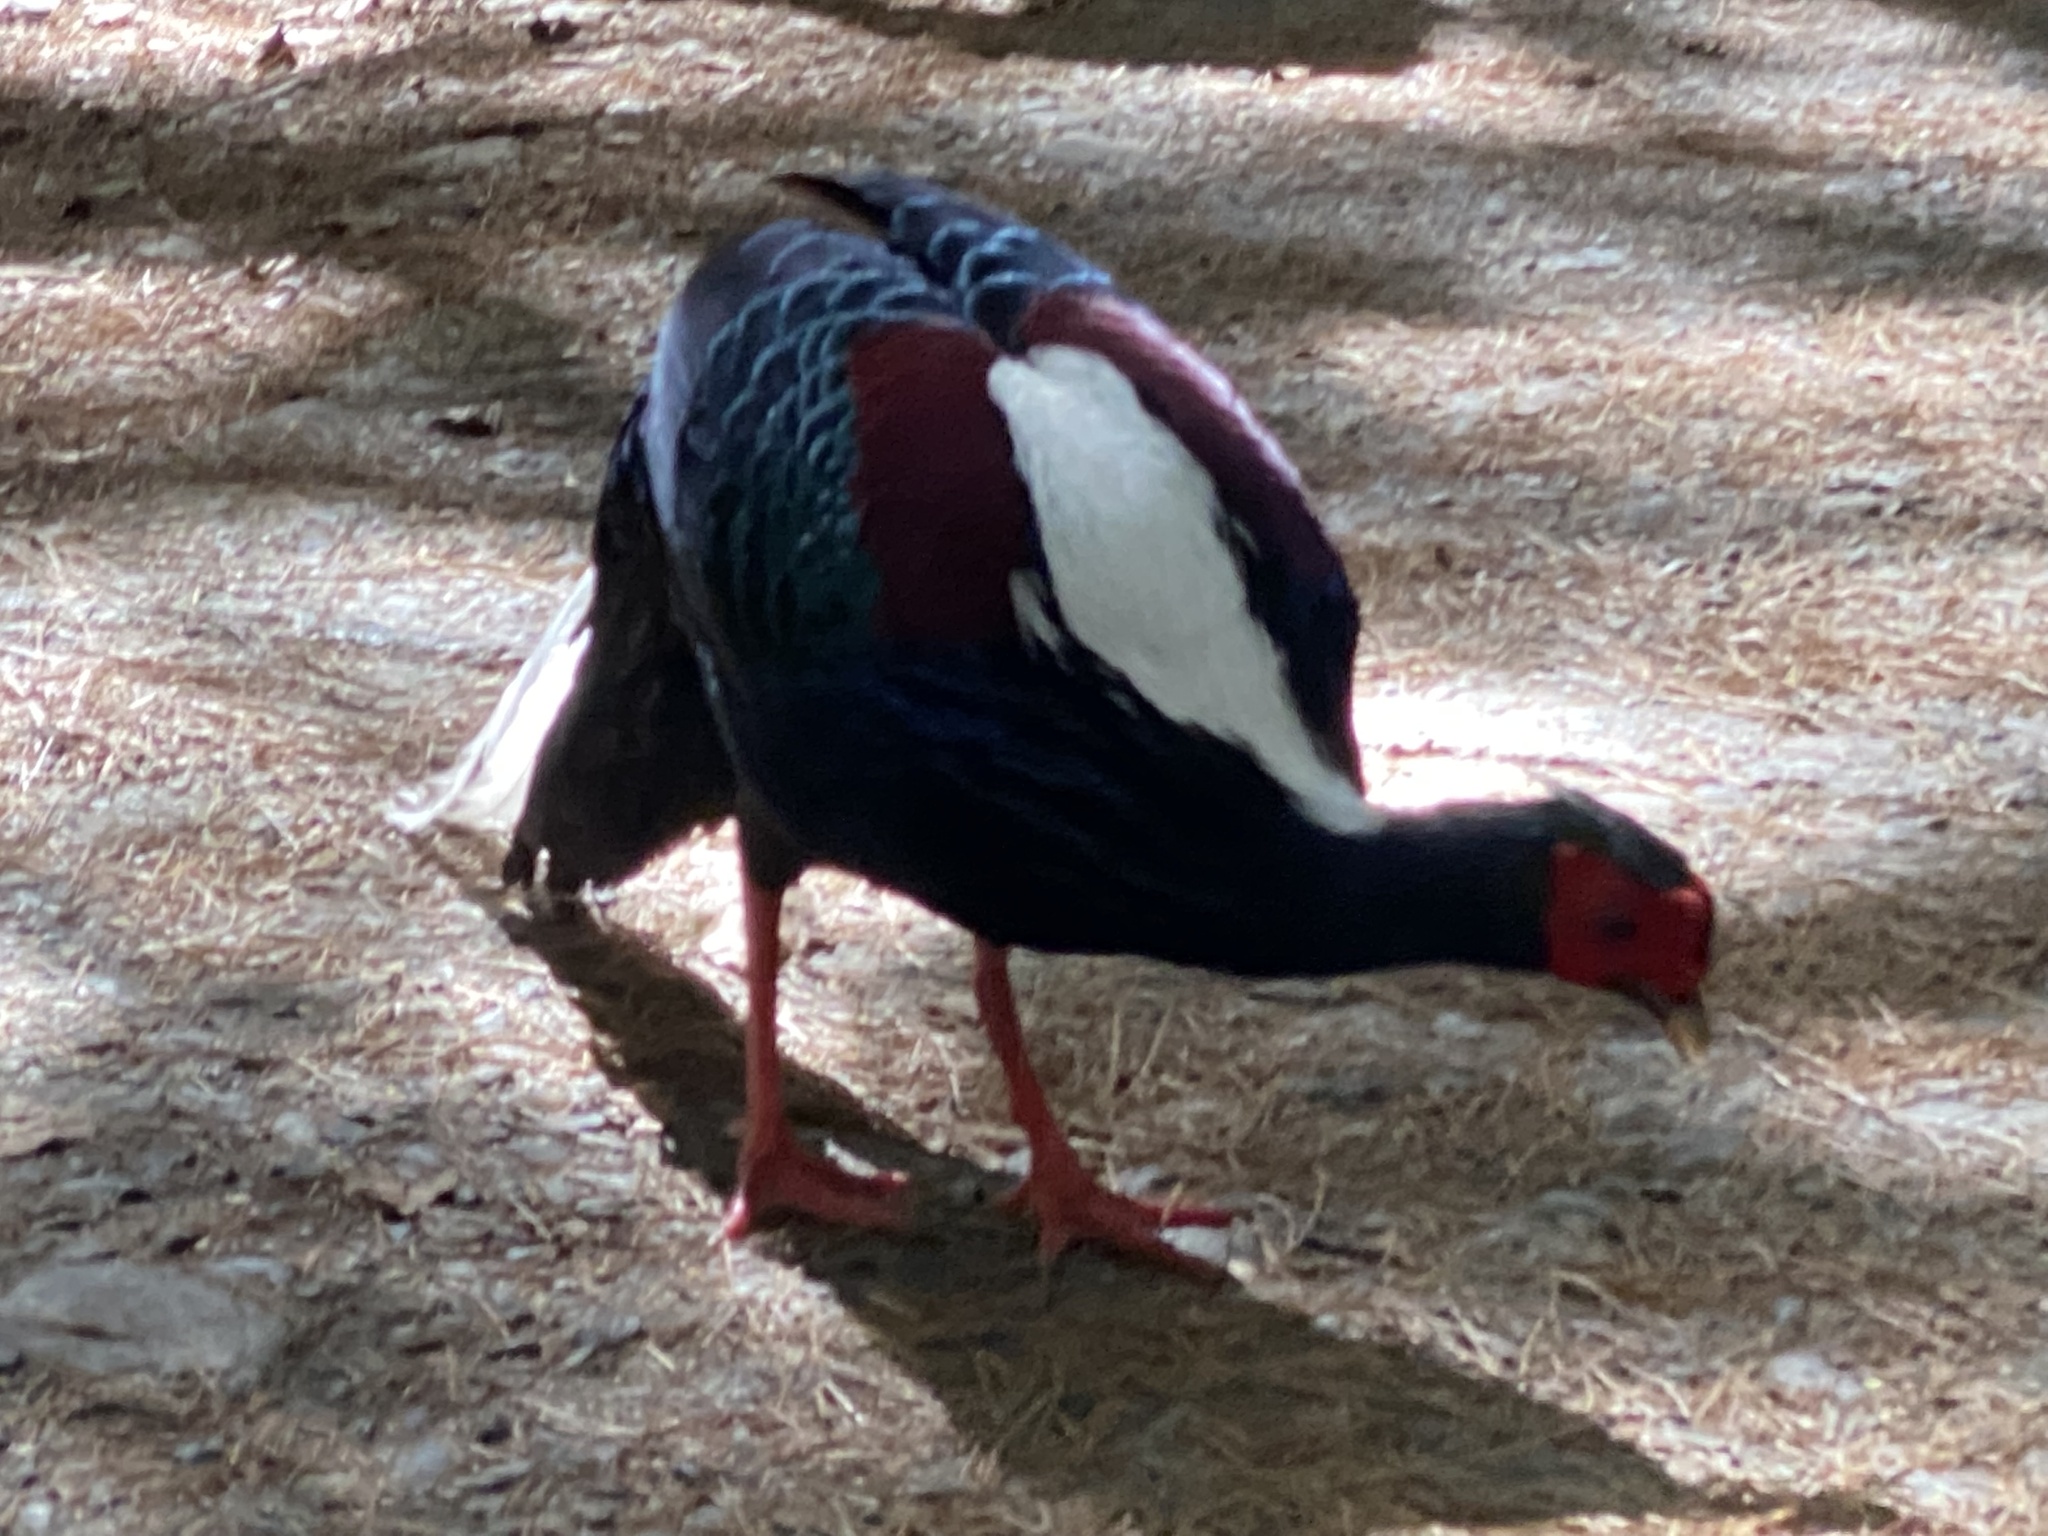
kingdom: Animalia
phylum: Chordata
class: Aves
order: Galliformes
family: Phasianidae
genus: Lophura
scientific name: Lophura swinhoii
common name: Swinhoe's pheasant
